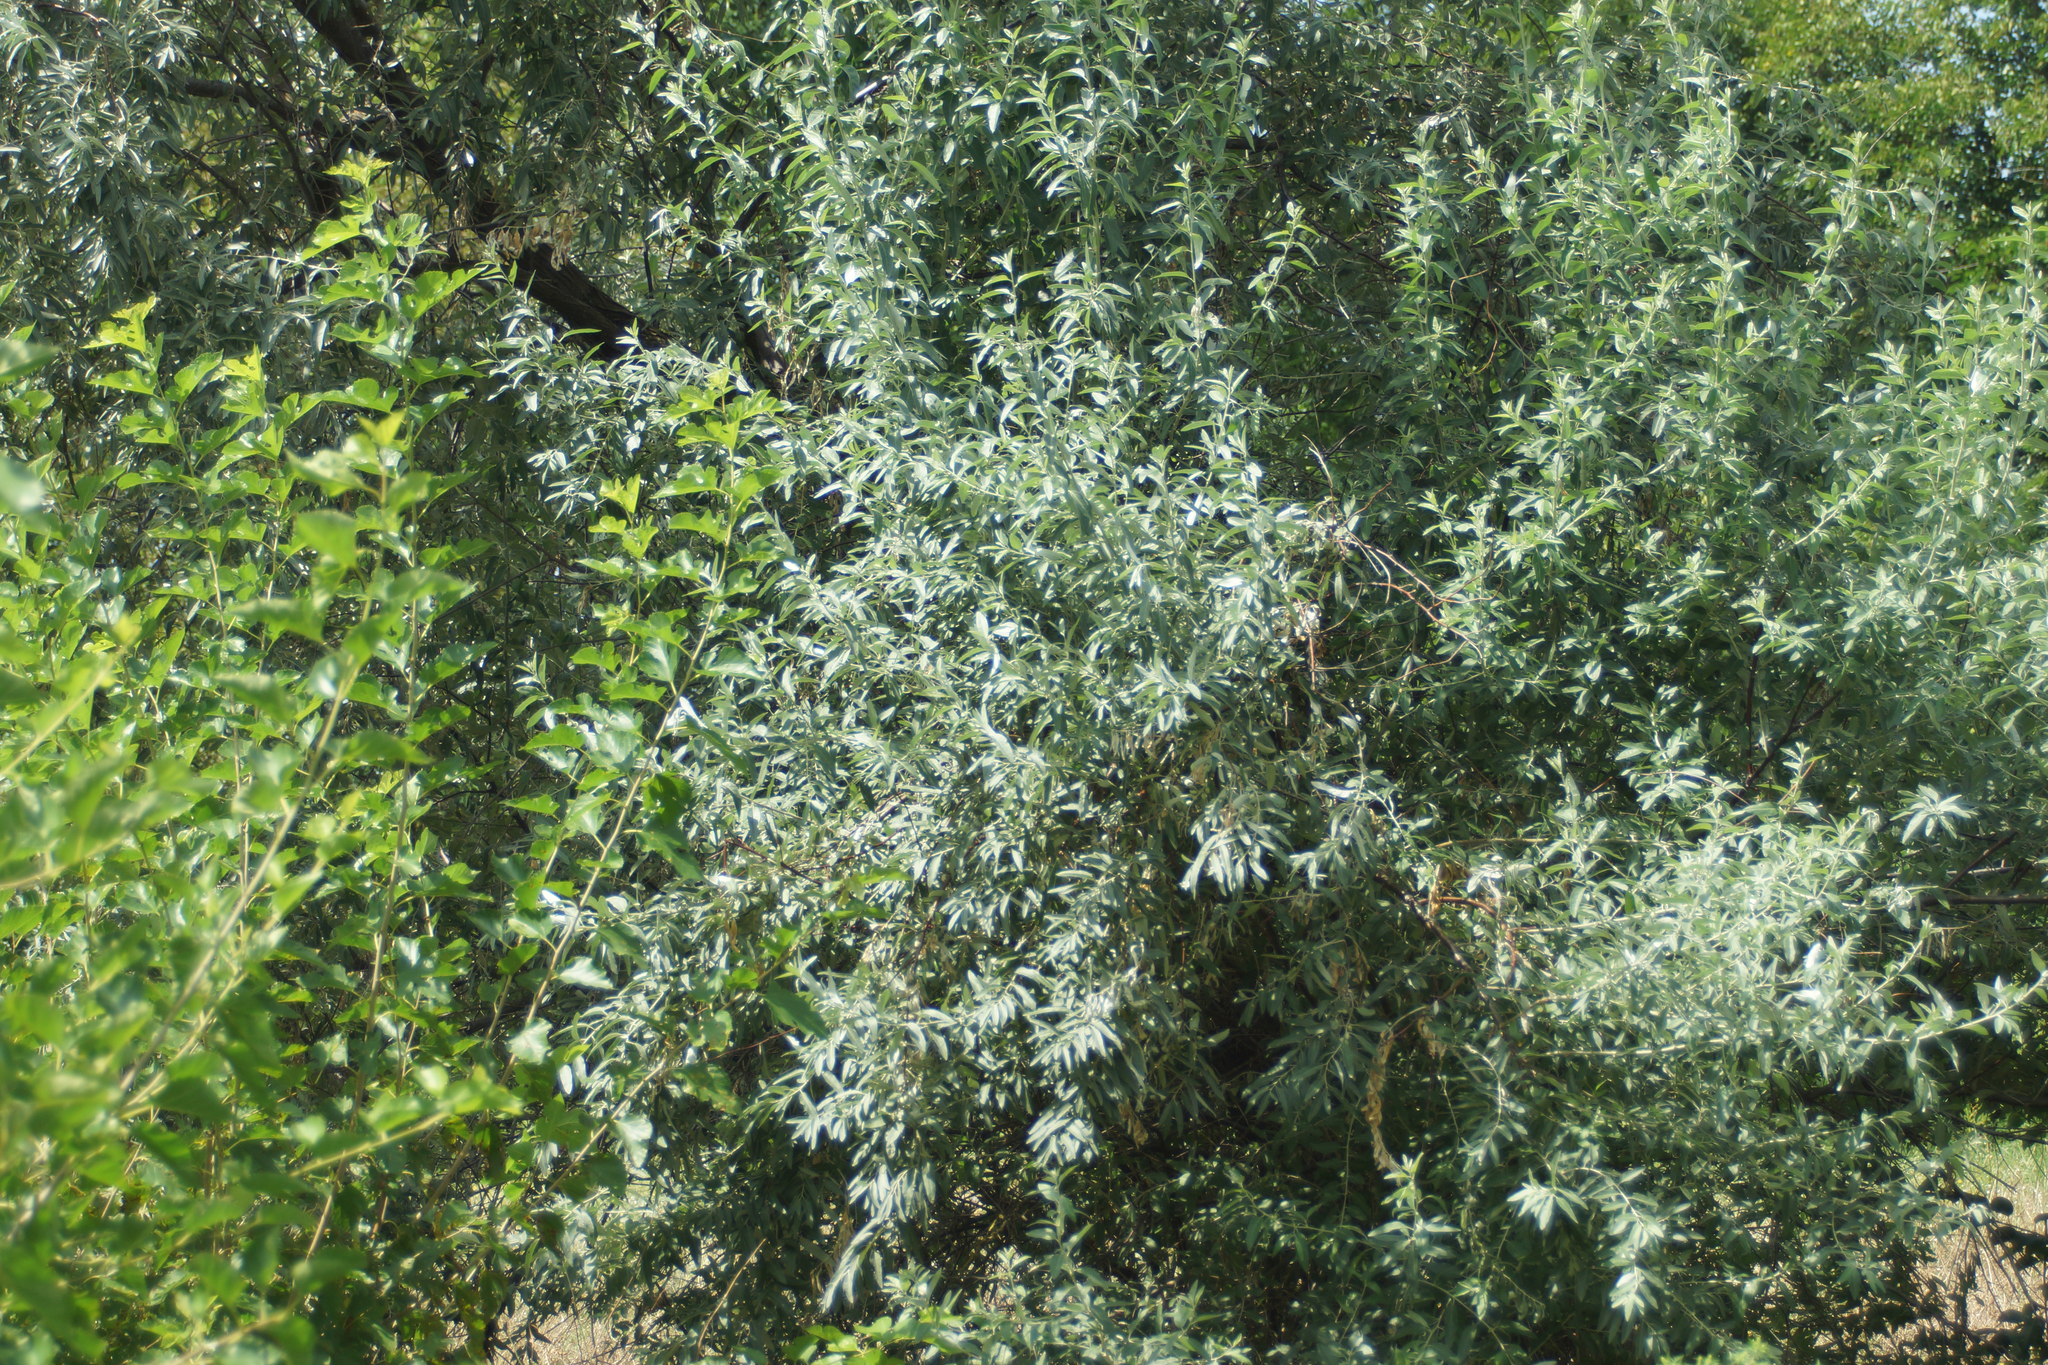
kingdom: Plantae
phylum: Tracheophyta
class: Magnoliopsida
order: Rosales
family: Elaeagnaceae
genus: Elaeagnus
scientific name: Elaeagnus angustifolia
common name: Russian olive
